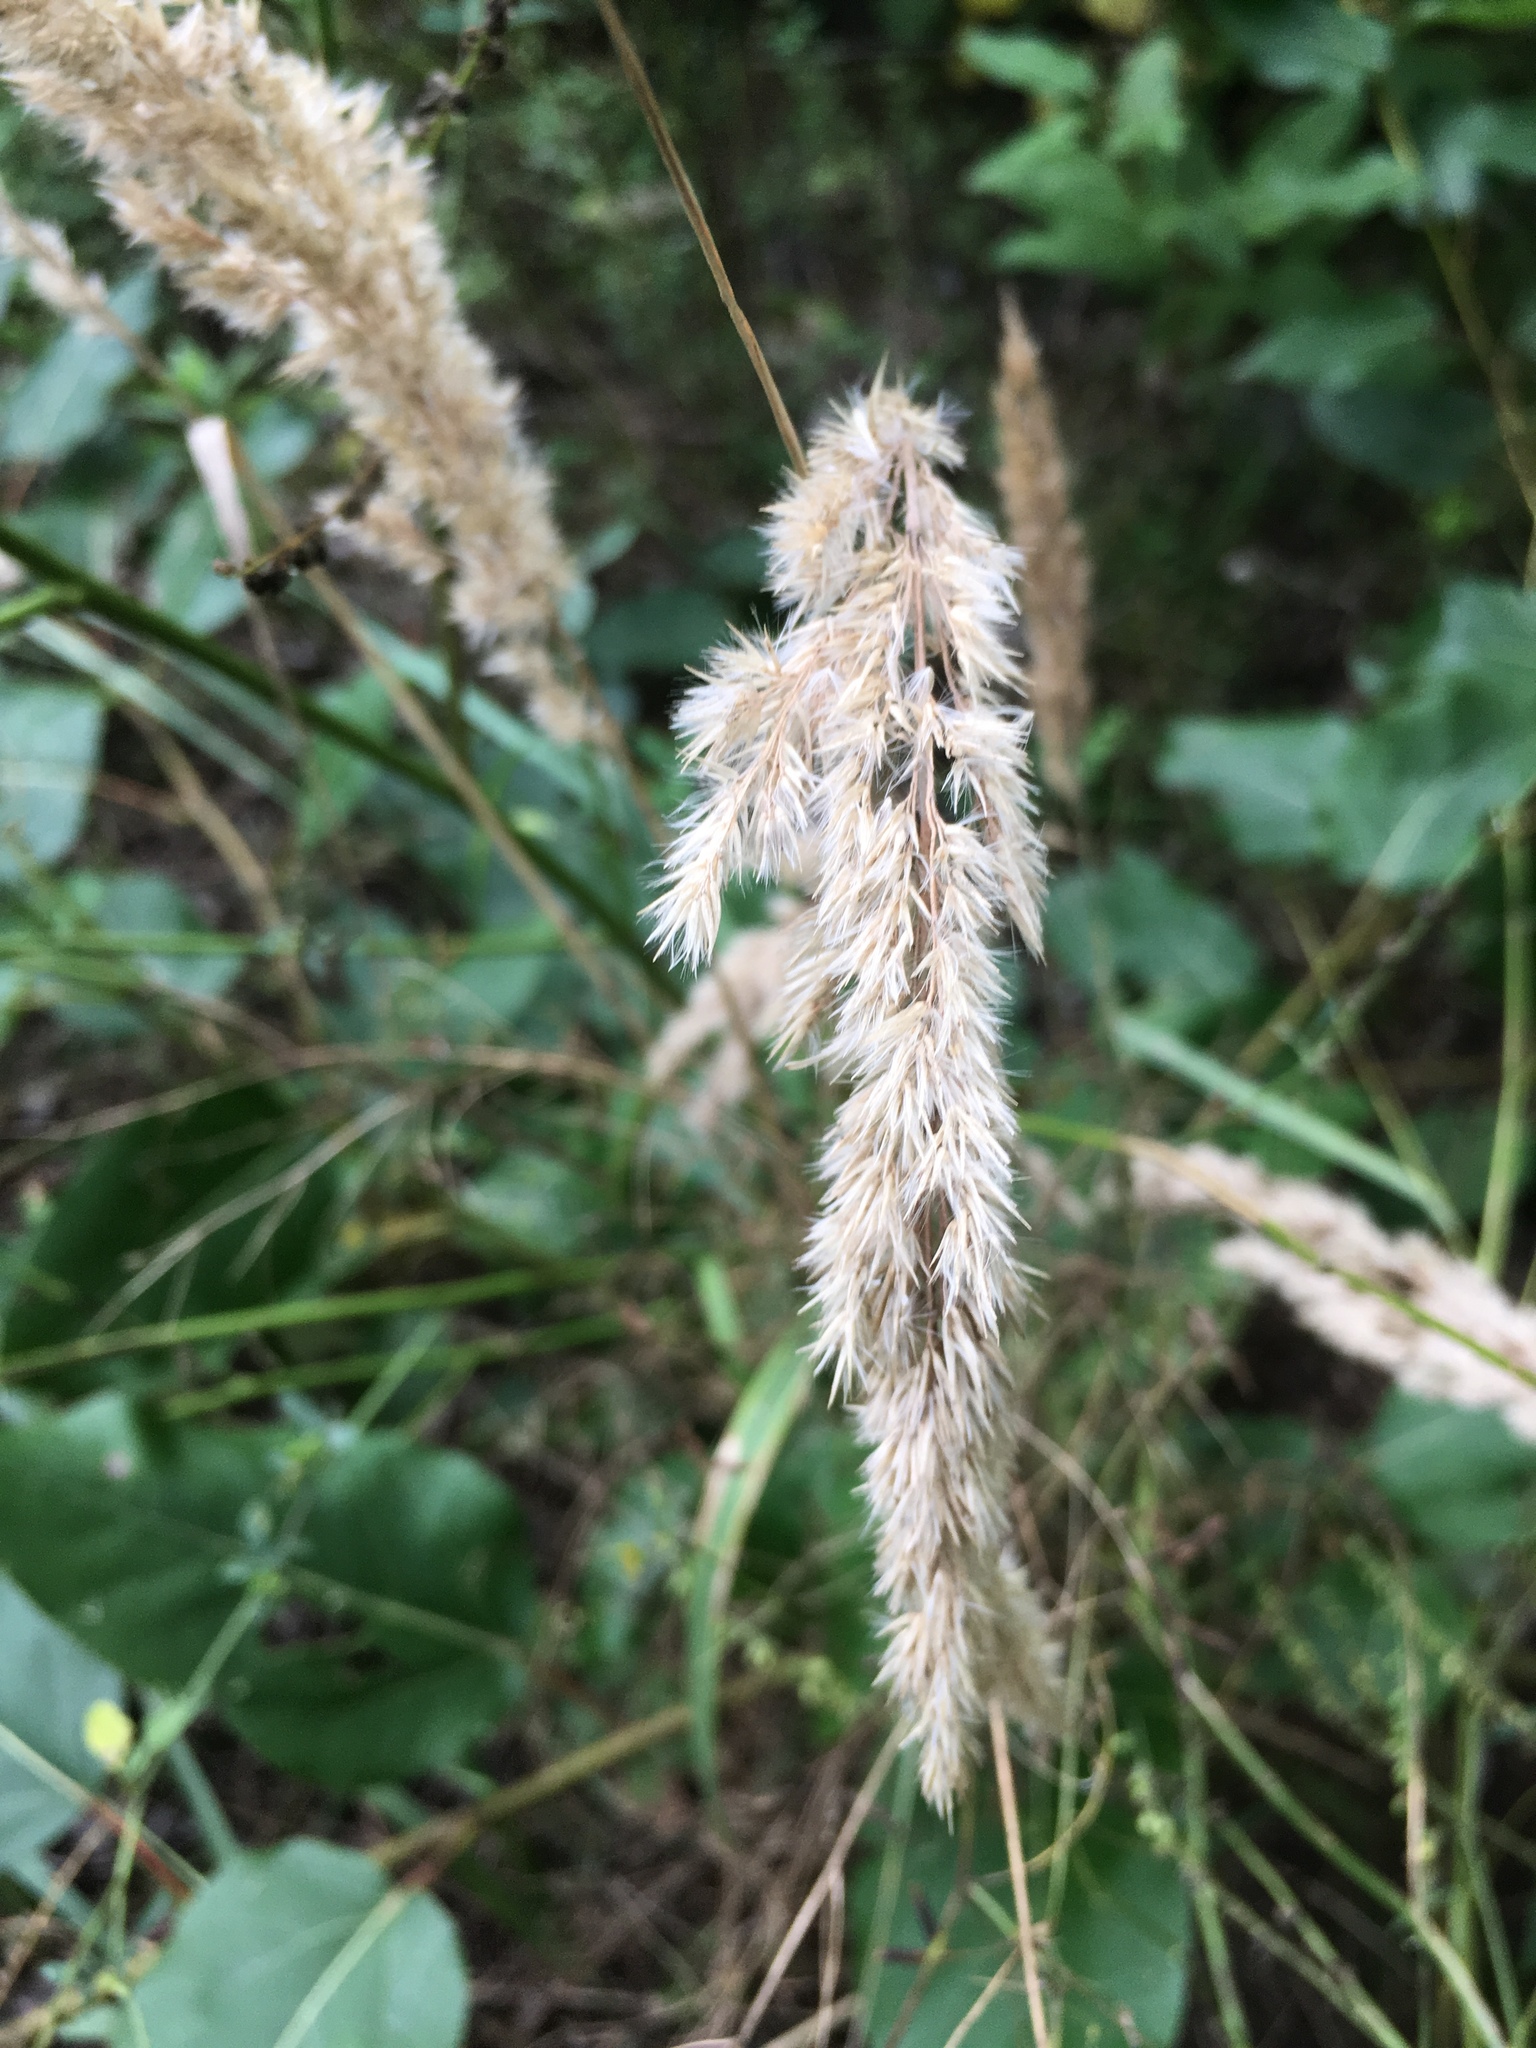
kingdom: Plantae
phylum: Tracheophyta
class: Liliopsida
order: Poales
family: Poaceae
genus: Calamagrostis
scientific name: Calamagrostis epigejos
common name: Wood small-reed
